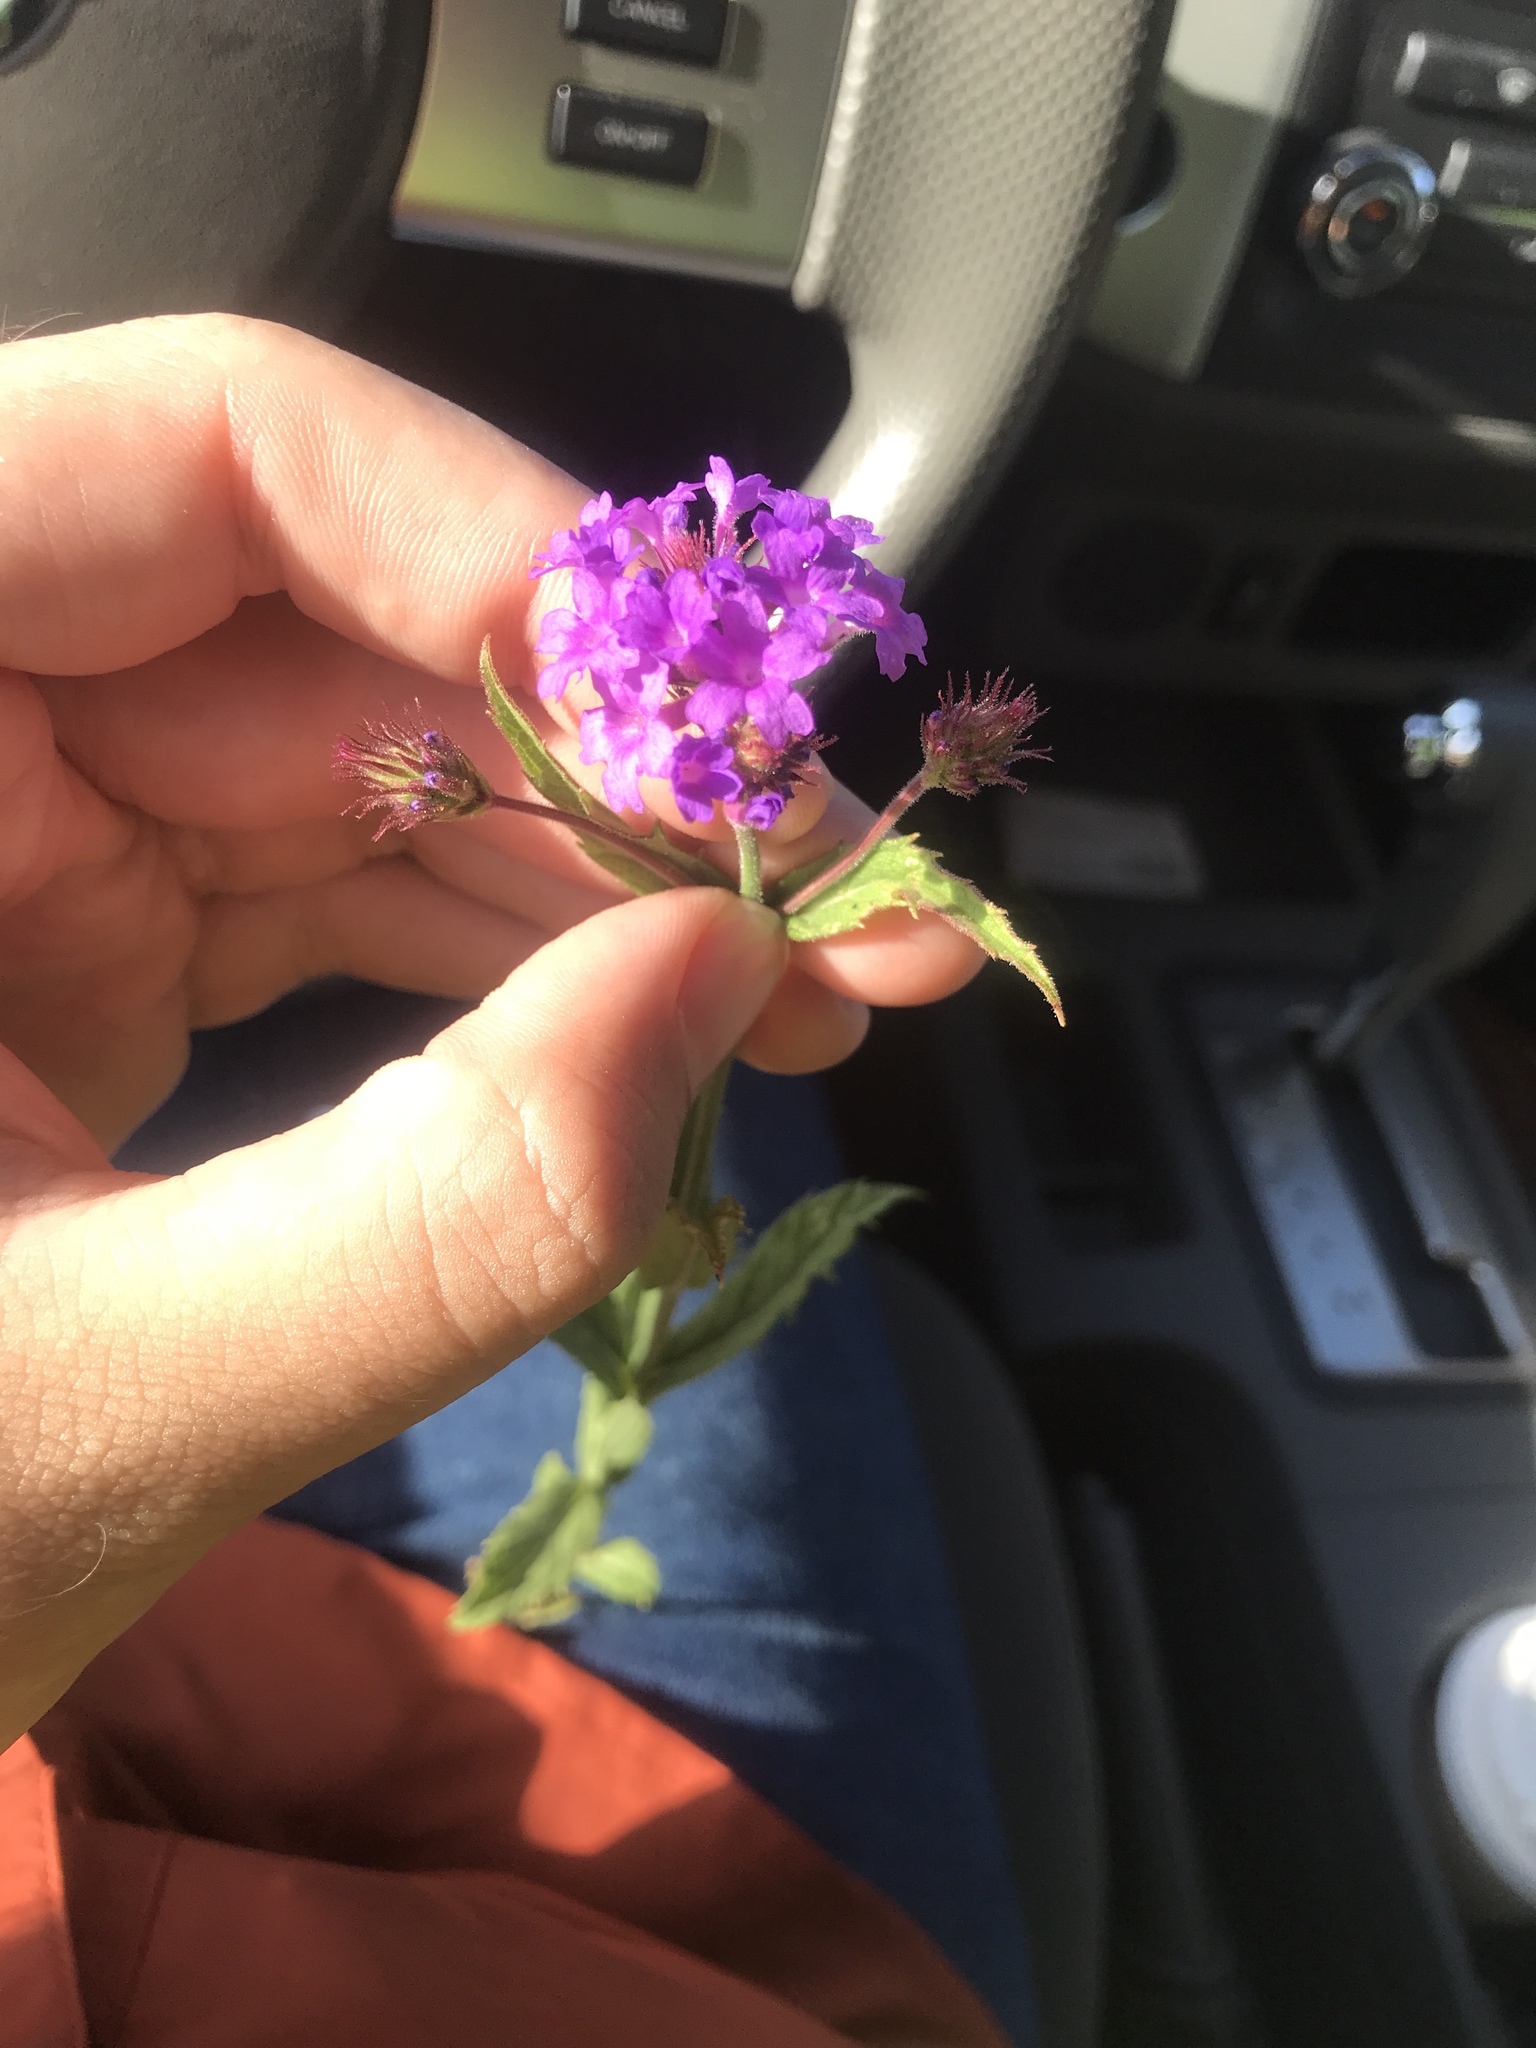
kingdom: Plantae
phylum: Tracheophyta
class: Magnoliopsida
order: Lamiales
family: Verbenaceae
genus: Verbena
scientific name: Verbena rigida
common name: Slender vervain
